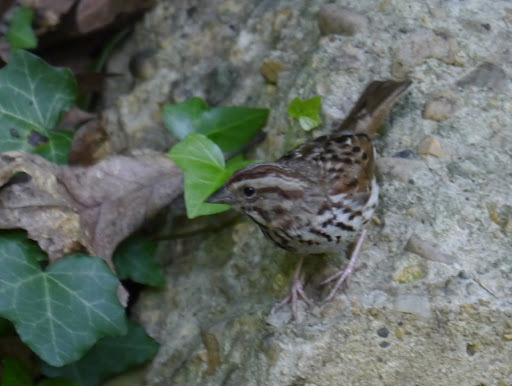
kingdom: Animalia
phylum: Chordata
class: Aves
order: Passeriformes
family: Passerellidae
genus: Melospiza
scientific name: Melospiza melodia
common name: Song sparrow
